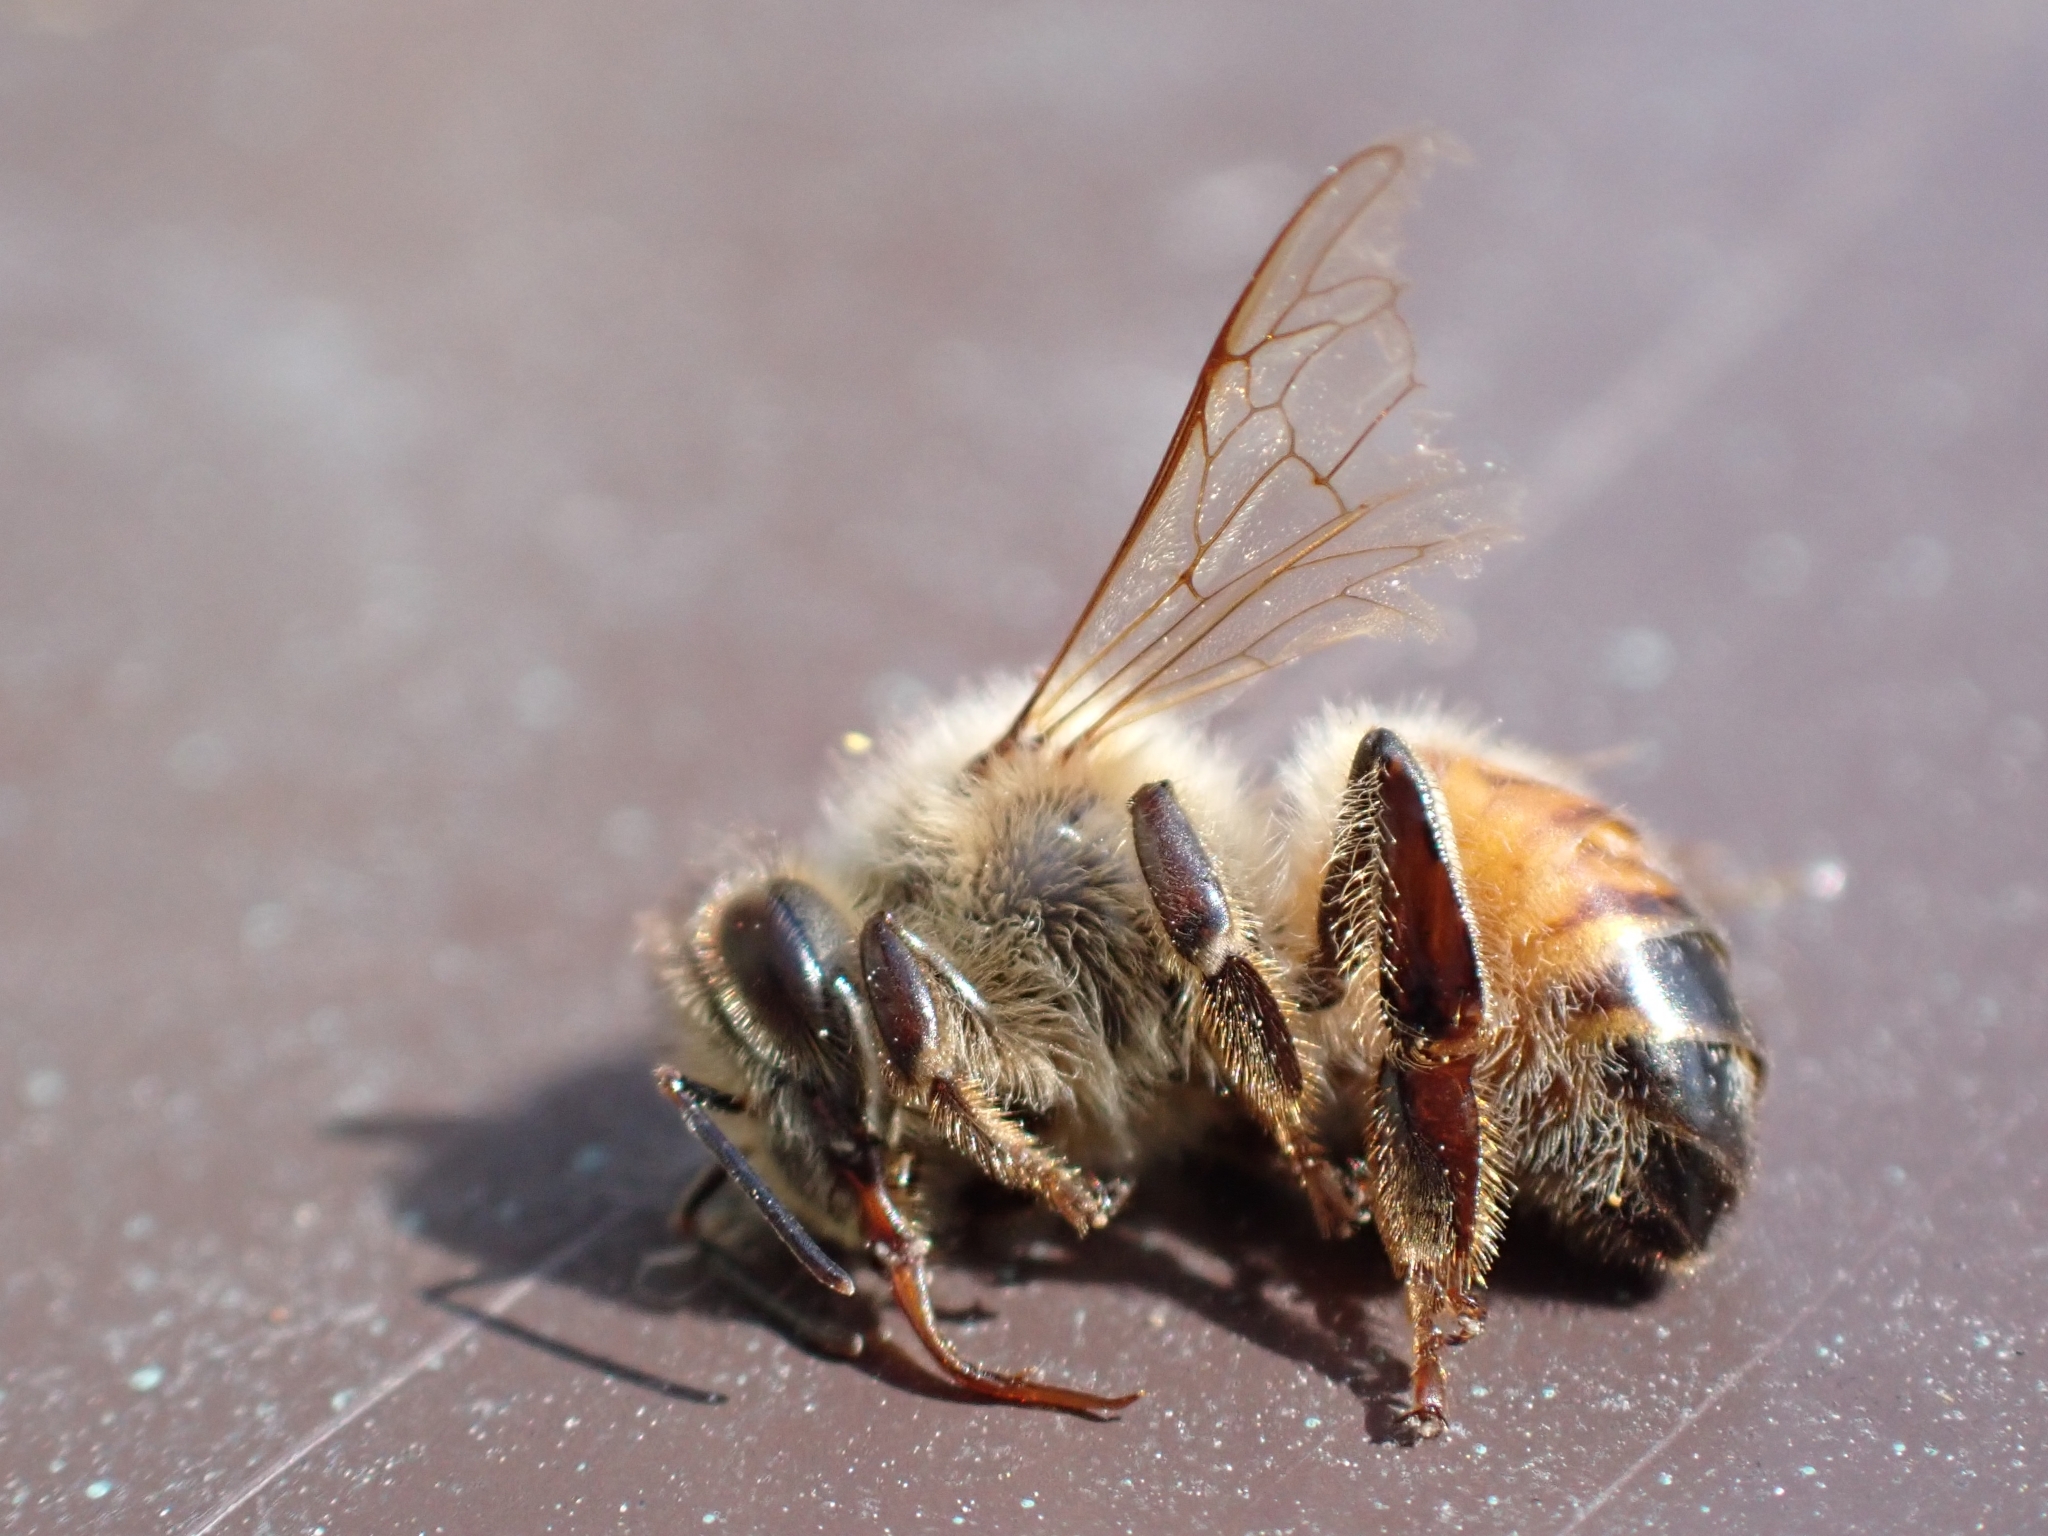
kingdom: Animalia
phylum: Arthropoda
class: Insecta
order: Hymenoptera
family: Apidae
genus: Apis
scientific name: Apis mellifera
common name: Honey bee
